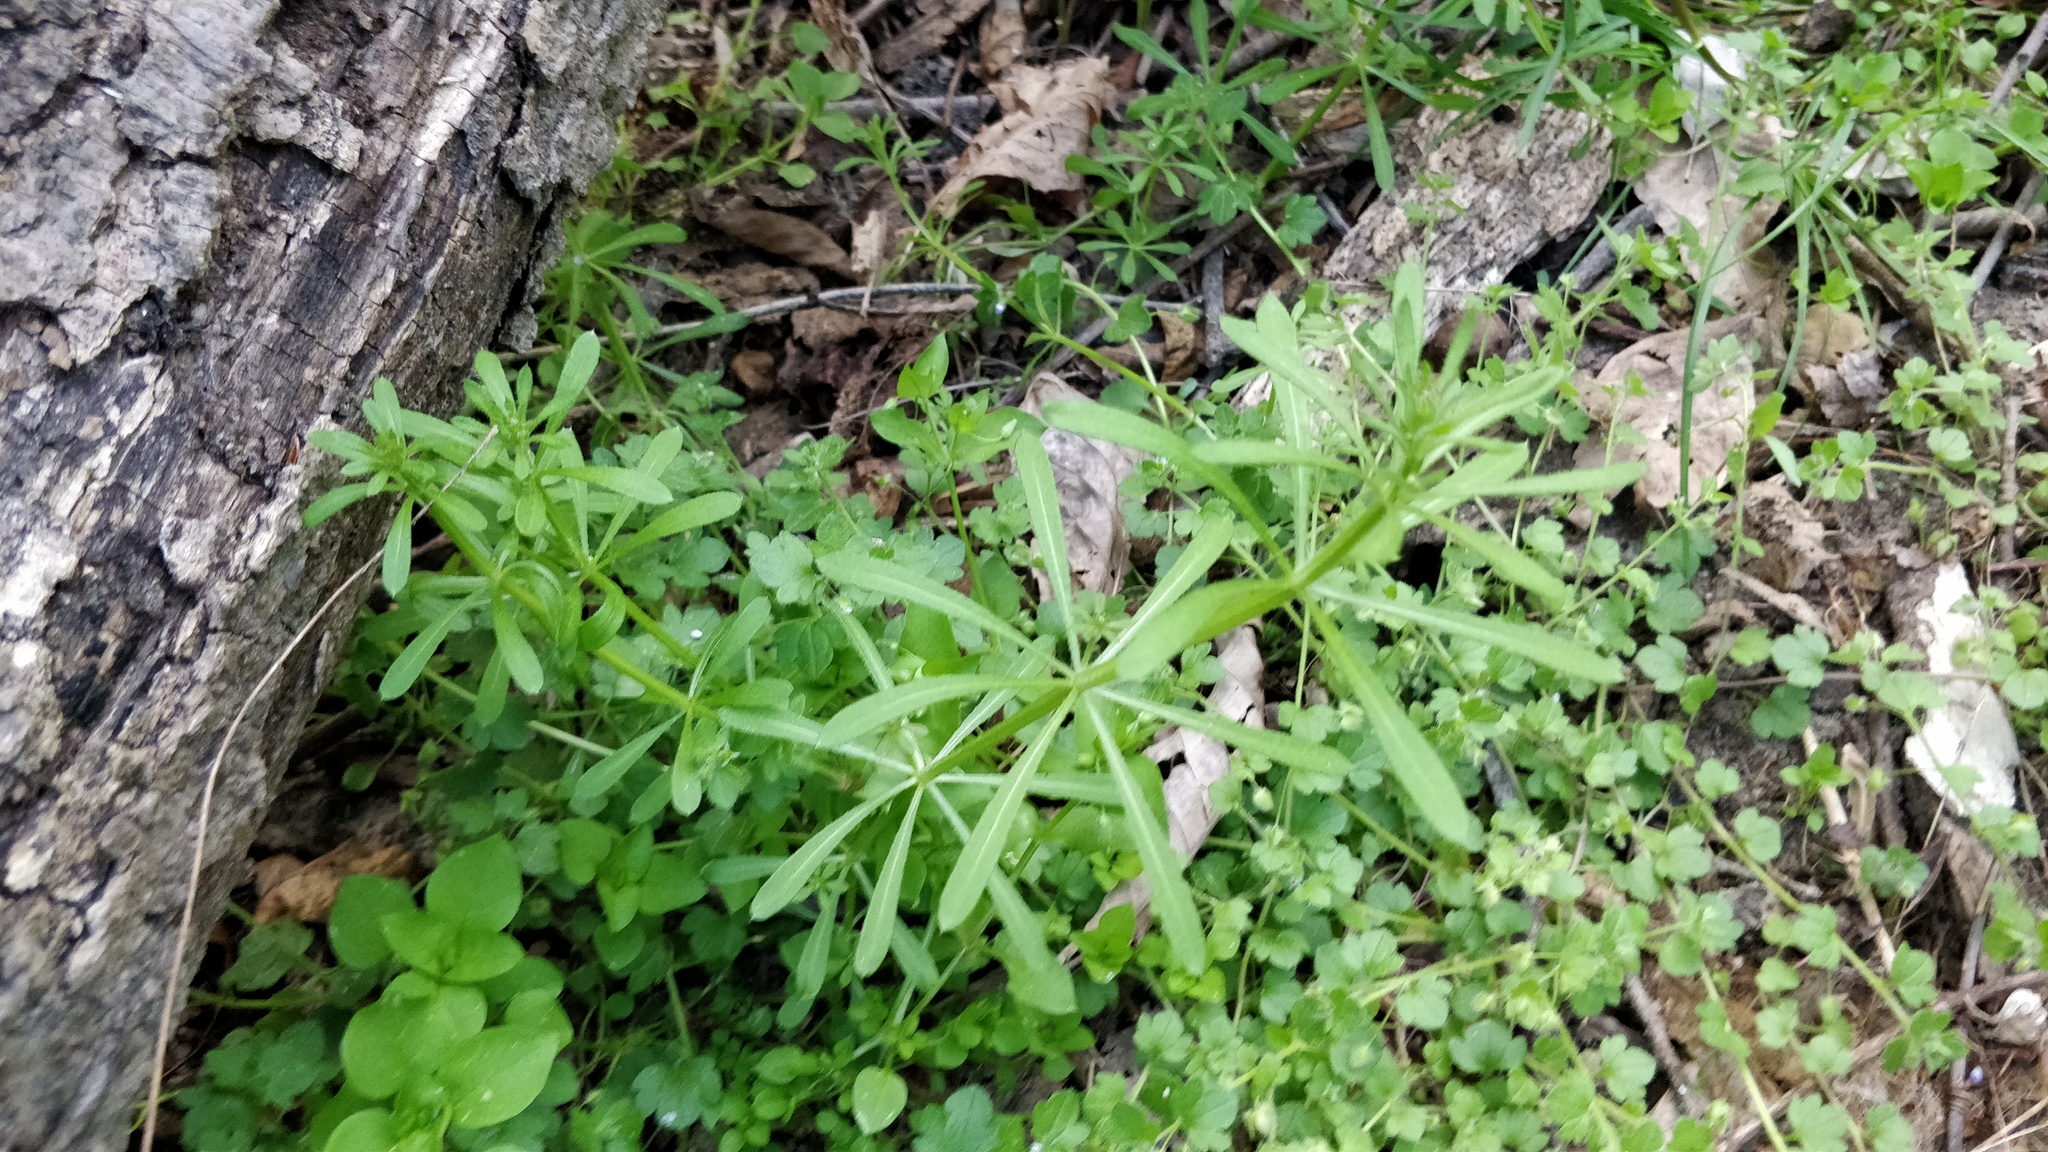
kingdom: Plantae
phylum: Tracheophyta
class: Magnoliopsida
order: Gentianales
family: Rubiaceae
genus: Galium
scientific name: Galium aparine
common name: Cleavers
